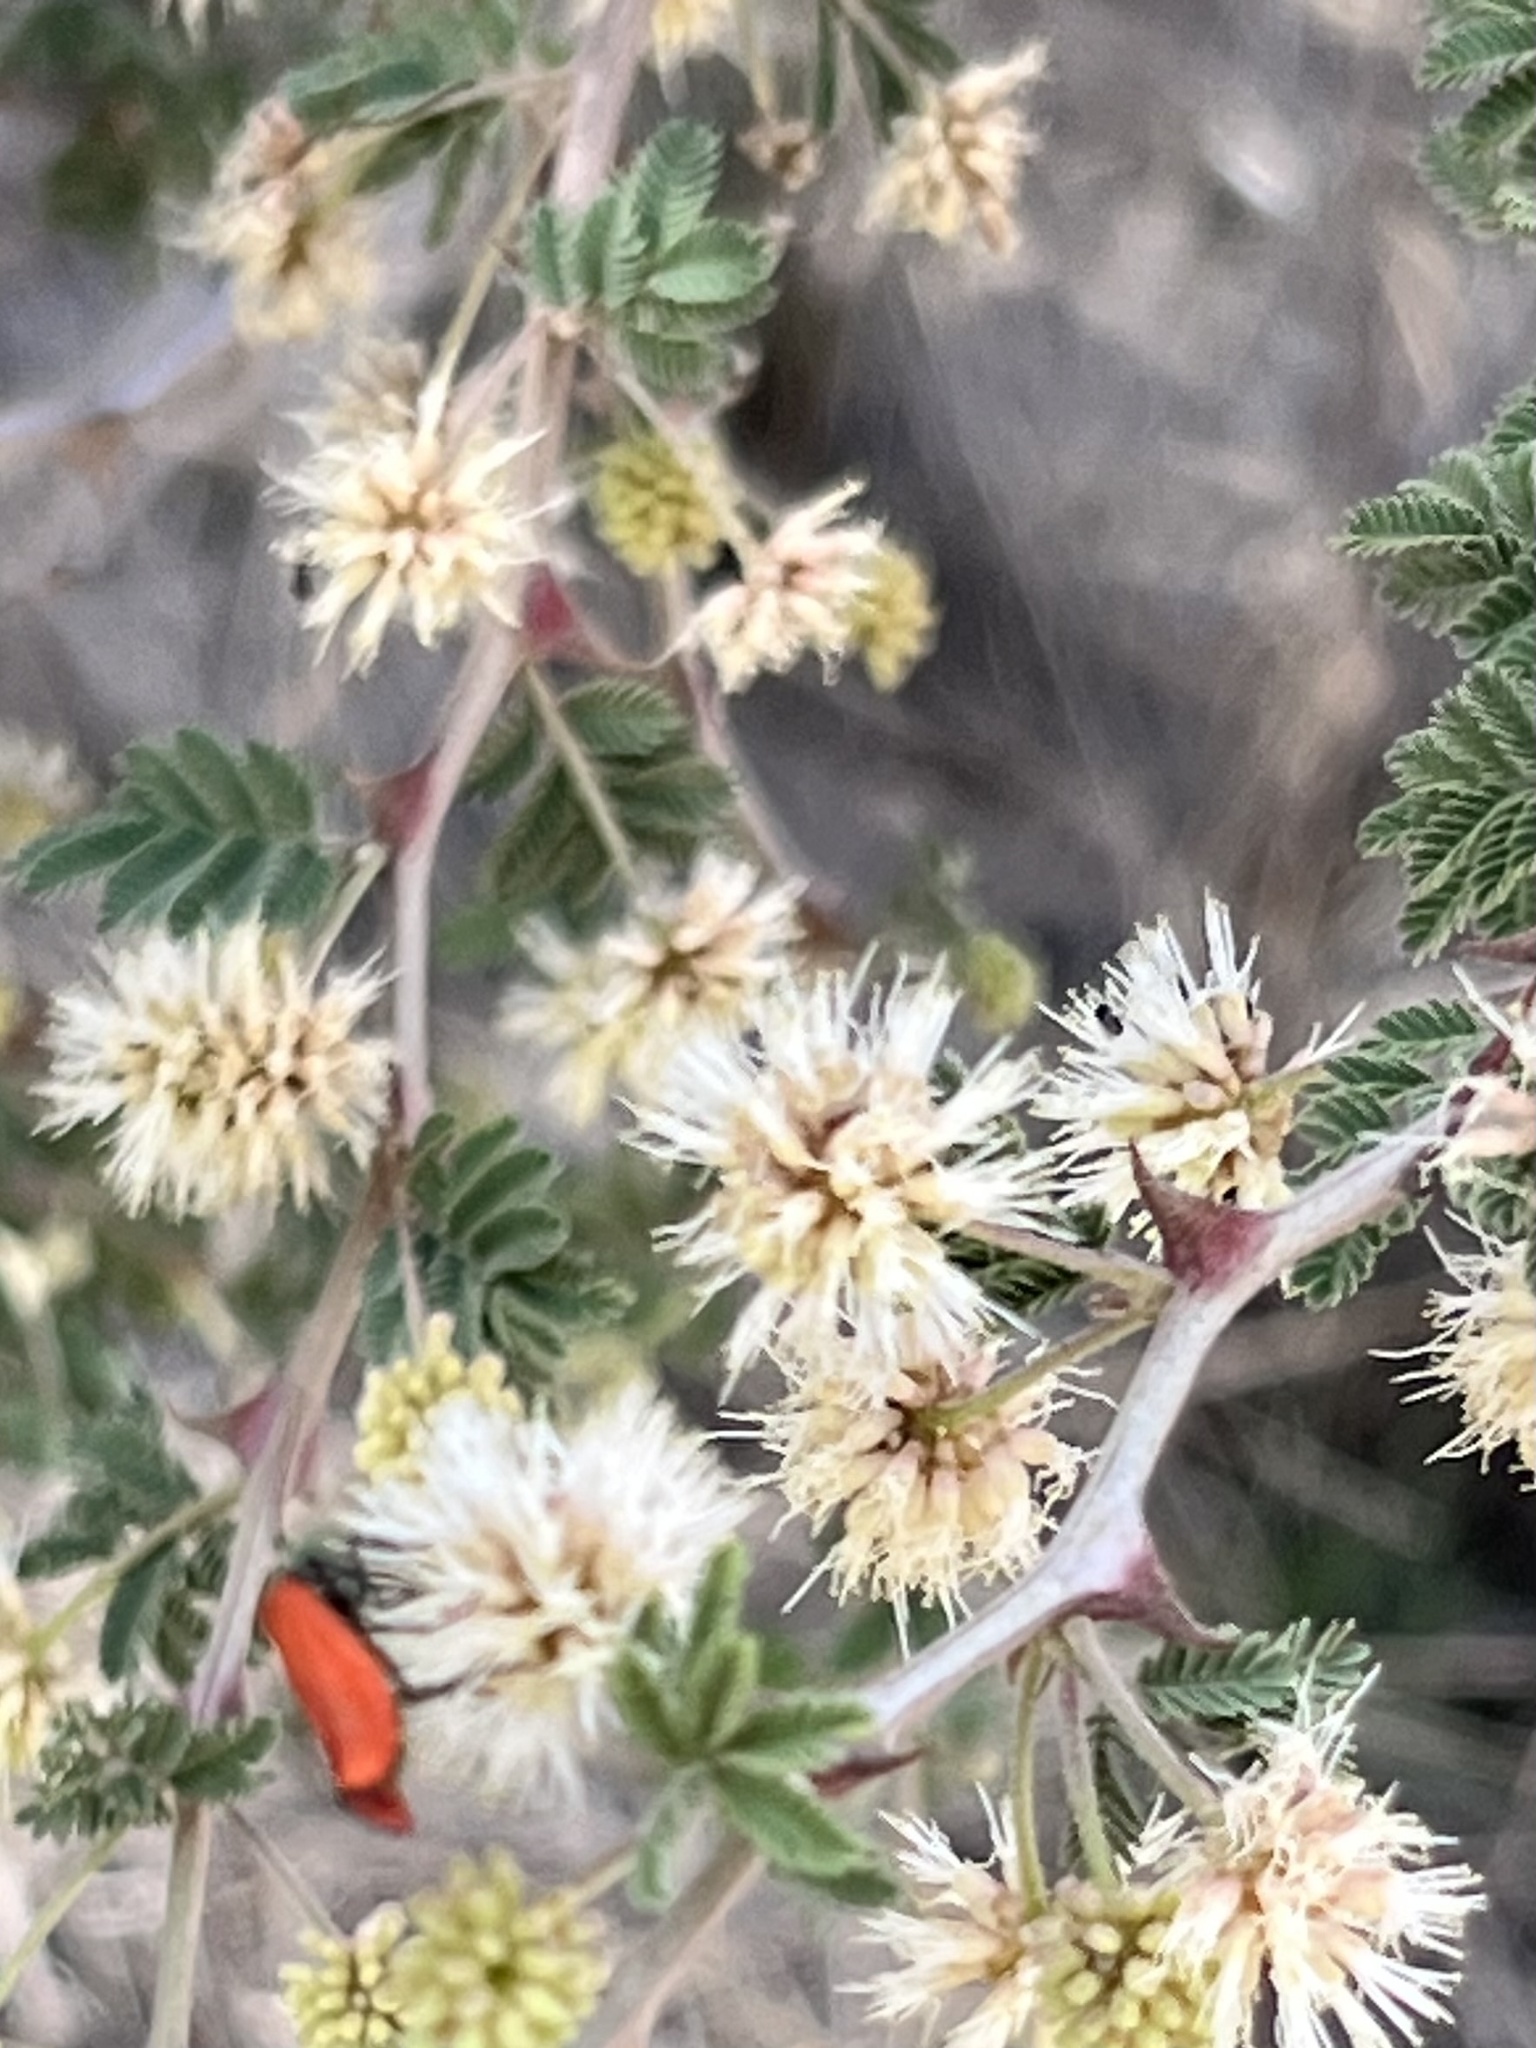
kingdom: Plantae
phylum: Tracheophyta
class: Magnoliopsida
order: Fabales
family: Fabaceae
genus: Mimosa
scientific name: Mimosa aculeaticarpa
